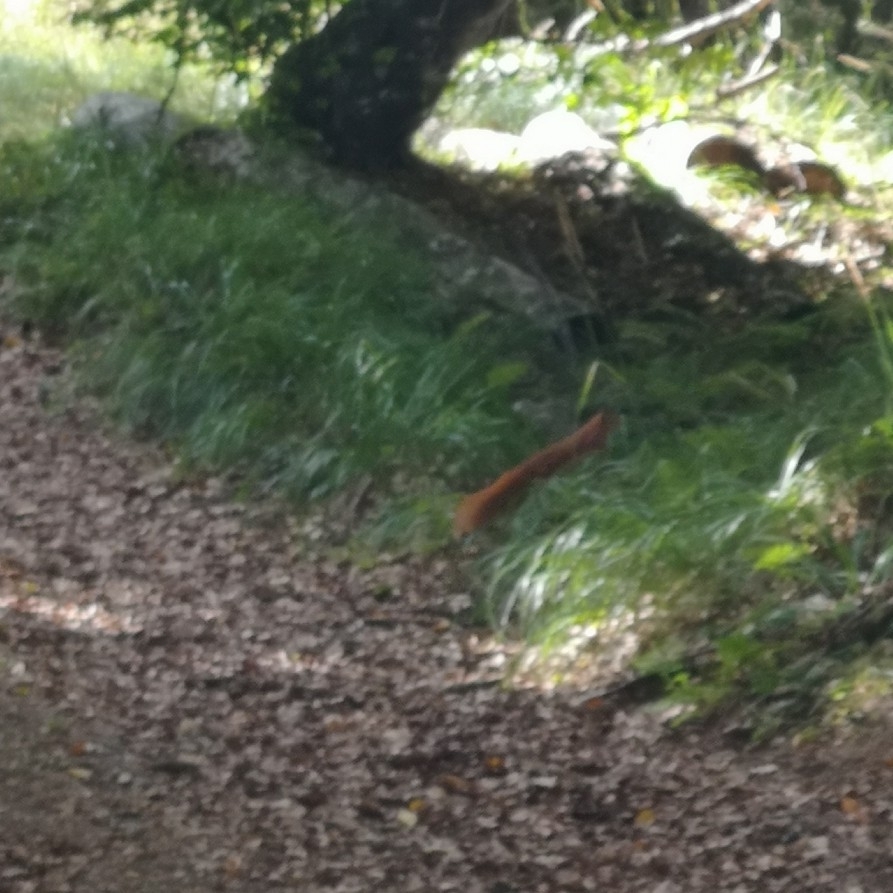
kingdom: Animalia
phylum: Chordata
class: Mammalia
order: Rodentia
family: Sciuridae
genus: Sciurus
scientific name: Sciurus vulgaris
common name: Eurasian red squirrel
